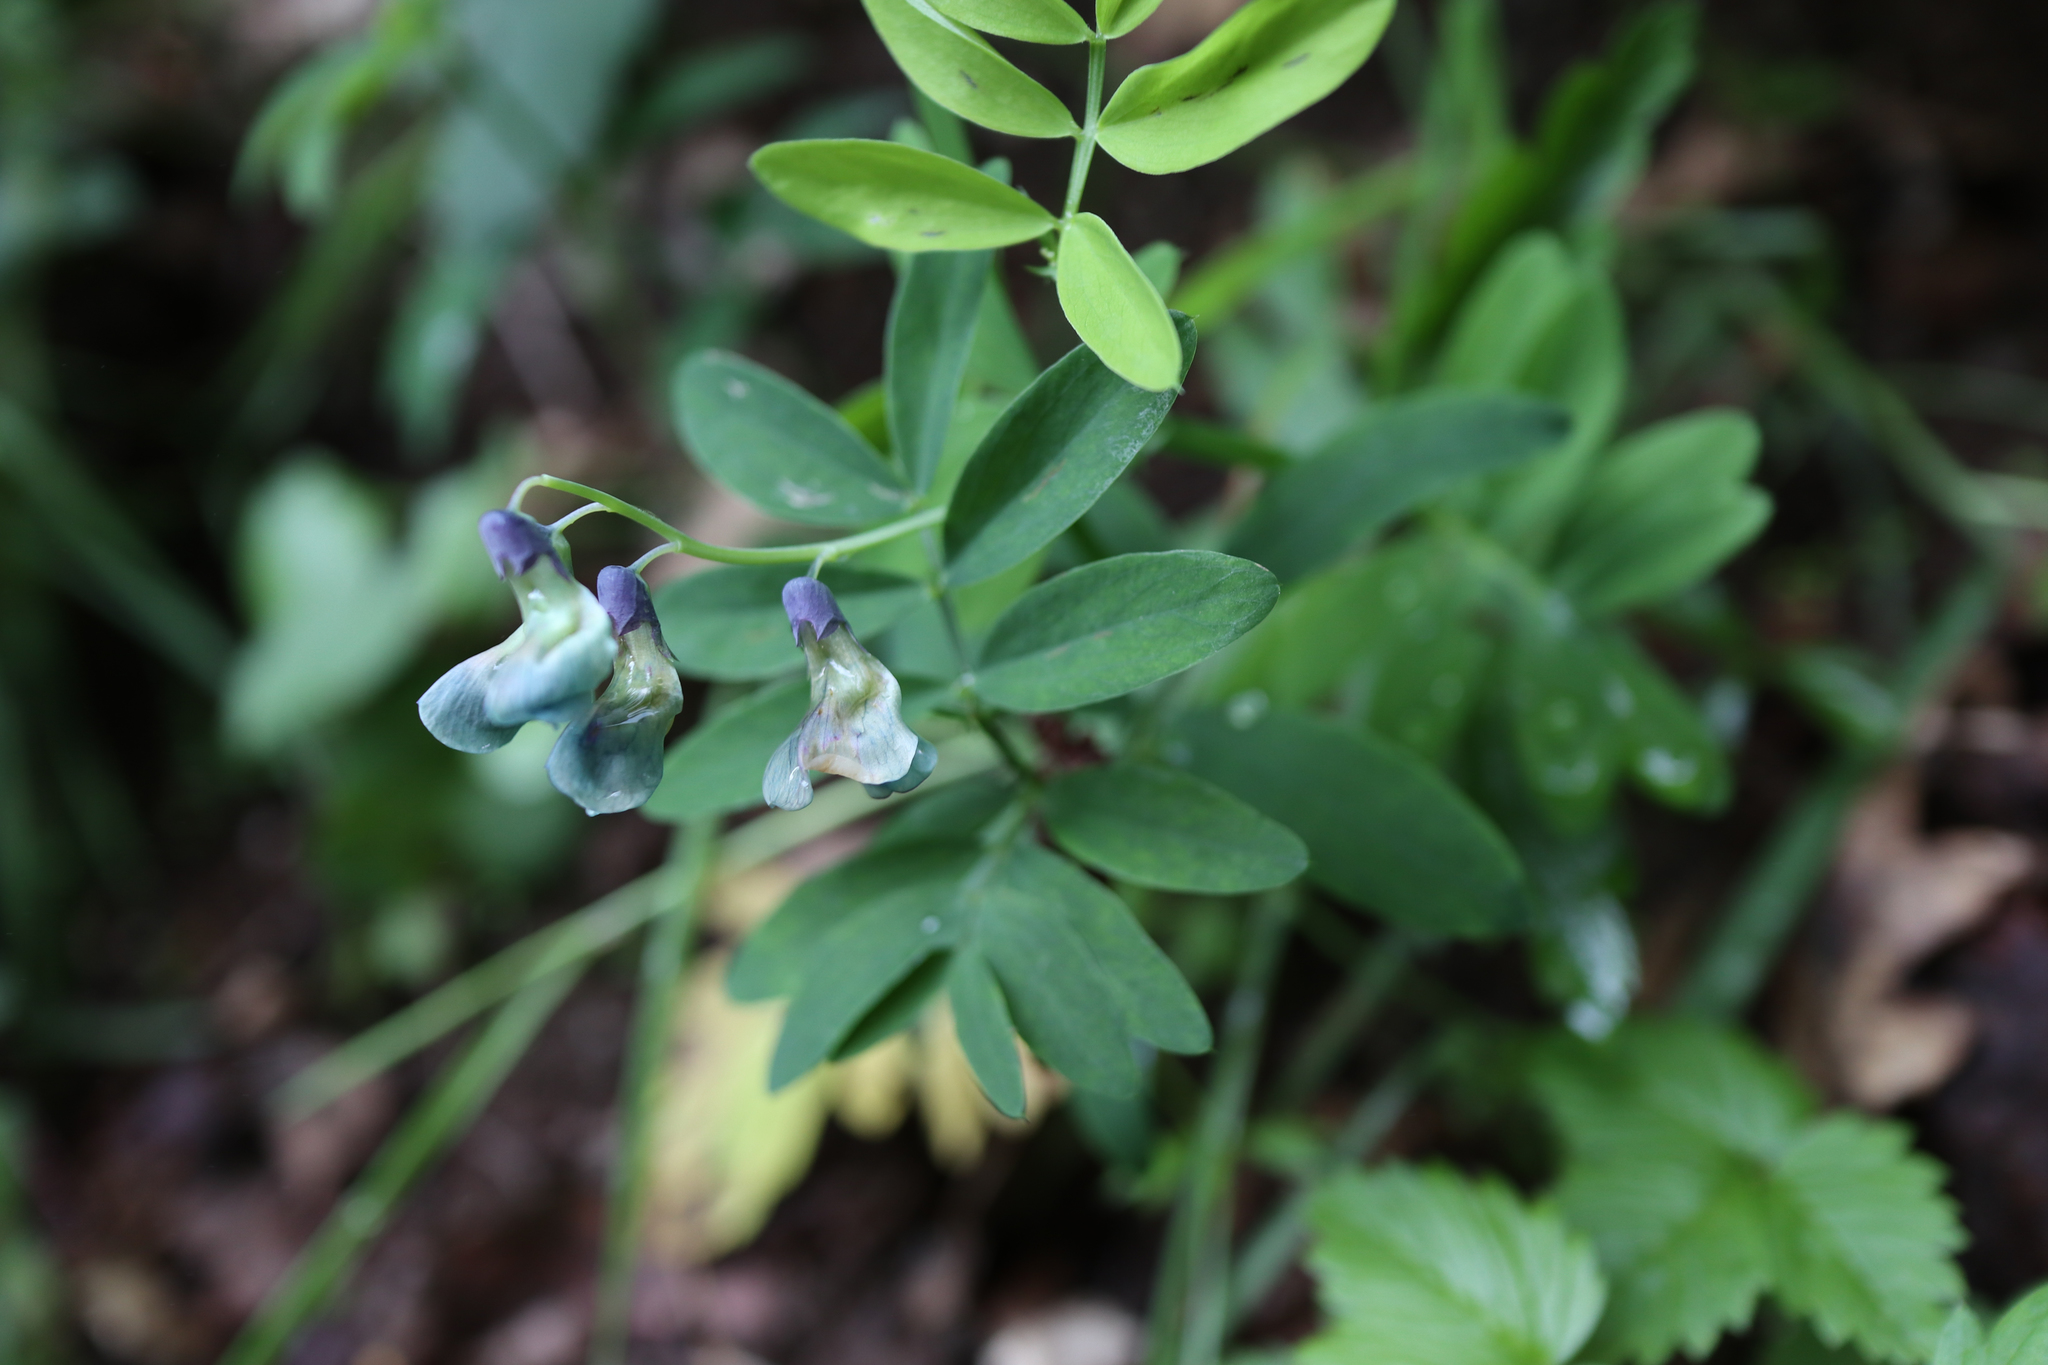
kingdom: Plantae
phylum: Tracheophyta
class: Magnoliopsida
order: Fabales
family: Fabaceae
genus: Lathyrus
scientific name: Lathyrus linifolius
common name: Bitter-vetch
